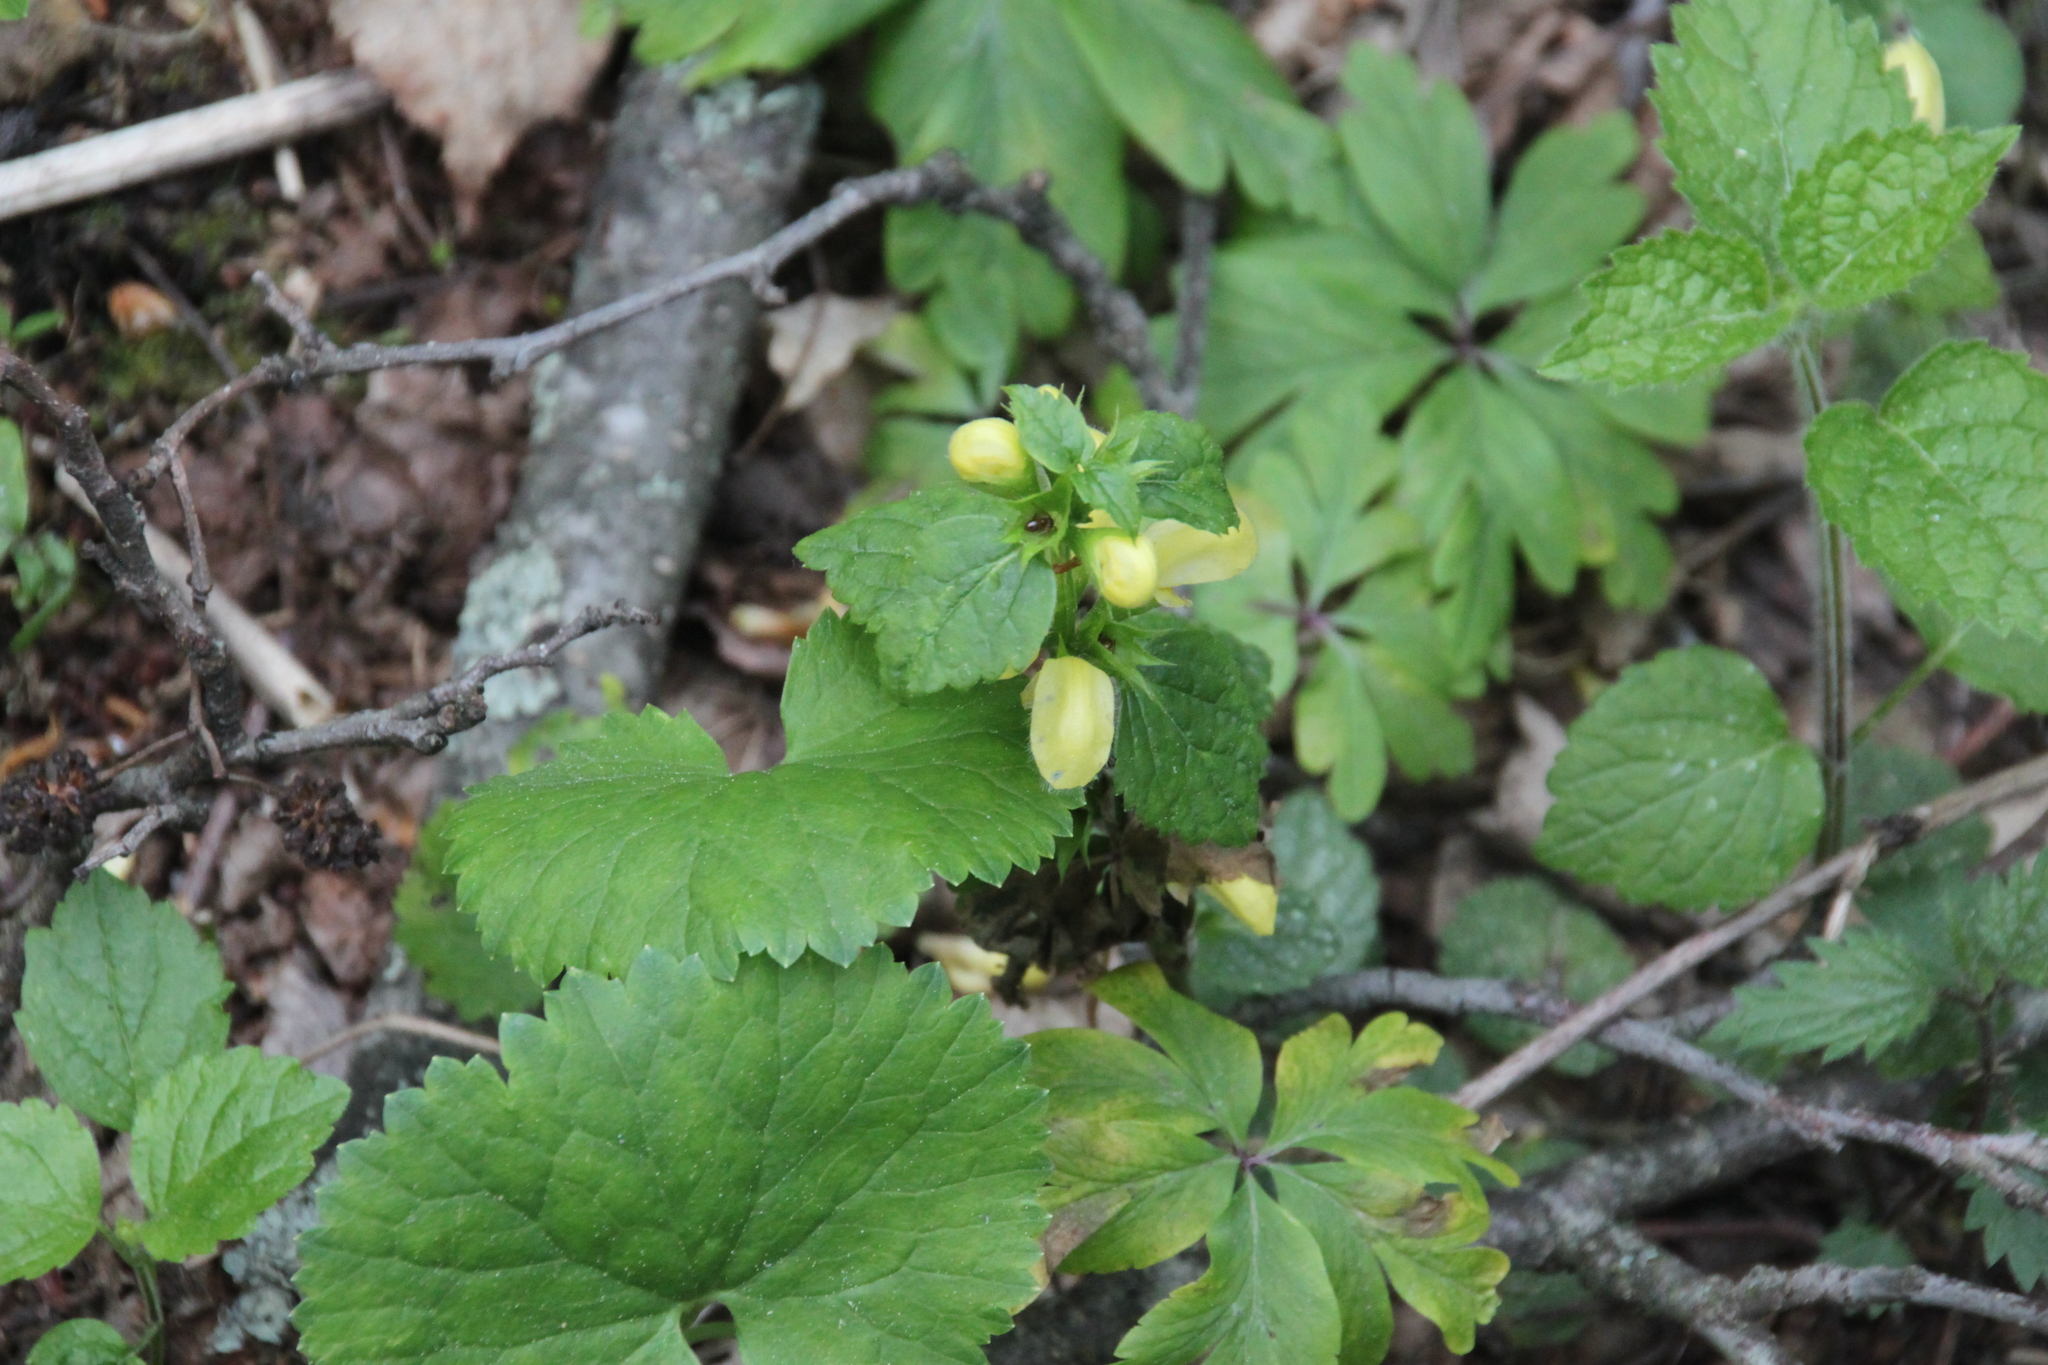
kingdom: Plantae
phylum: Tracheophyta
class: Magnoliopsida
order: Lamiales
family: Lamiaceae
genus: Lamium
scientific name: Lamium galeobdolon
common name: Yellow archangel
